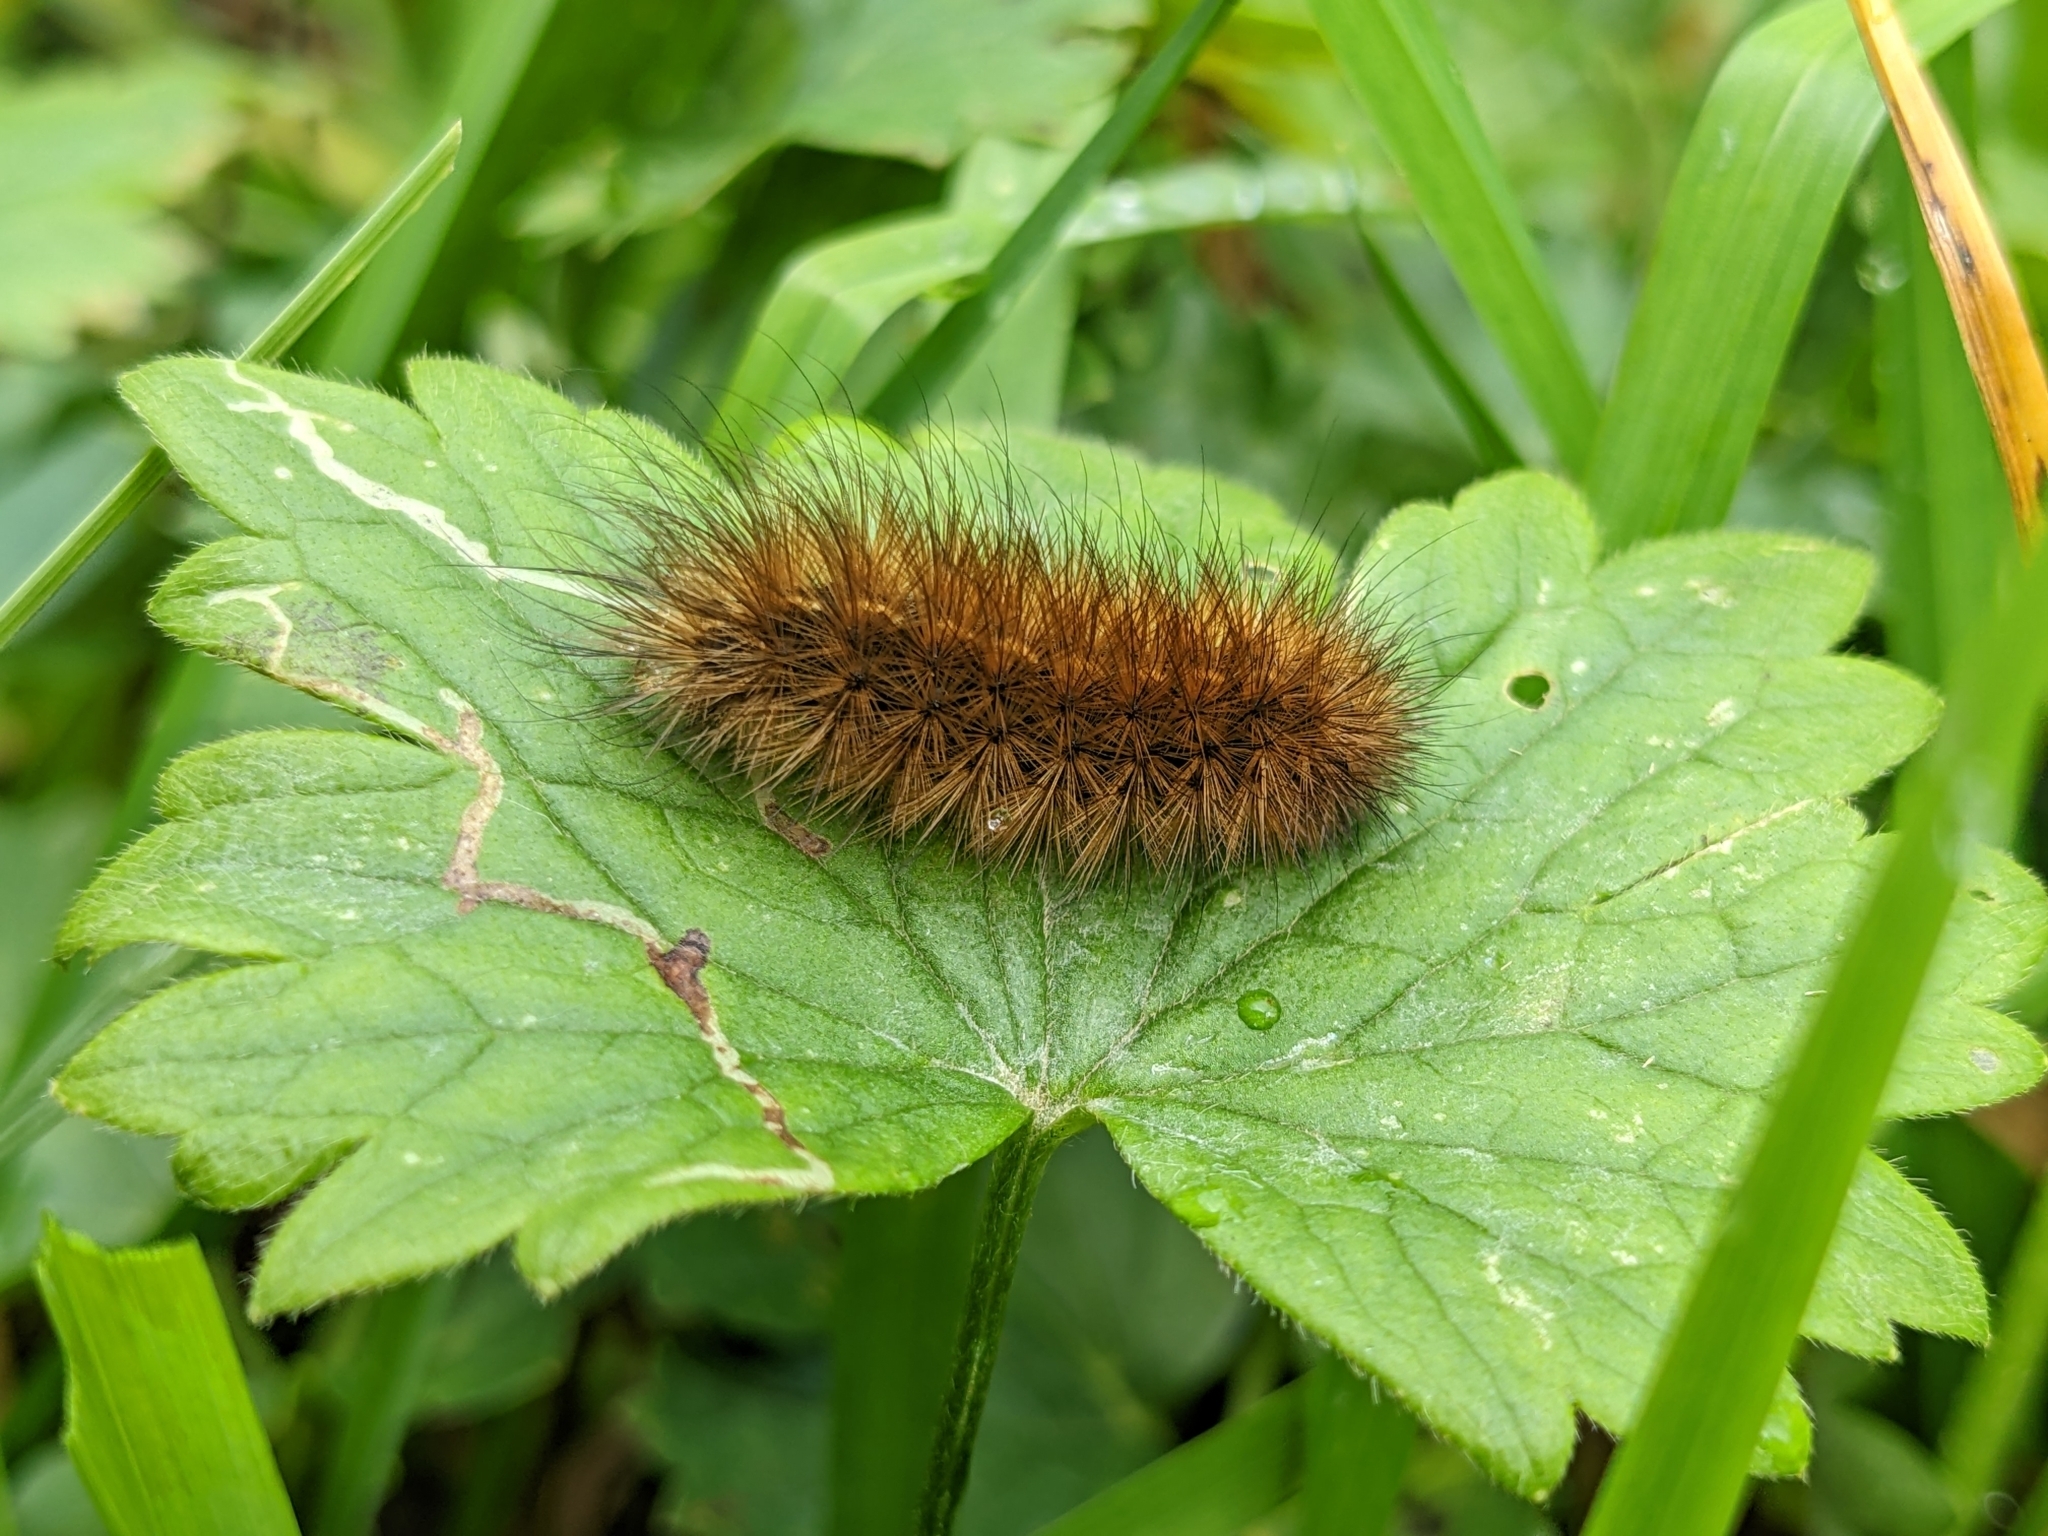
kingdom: Animalia
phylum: Arthropoda
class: Insecta
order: Lepidoptera
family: Erebidae
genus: Phragmatobia
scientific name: Phragmatobia fuliginosa
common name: Ruby tiger
